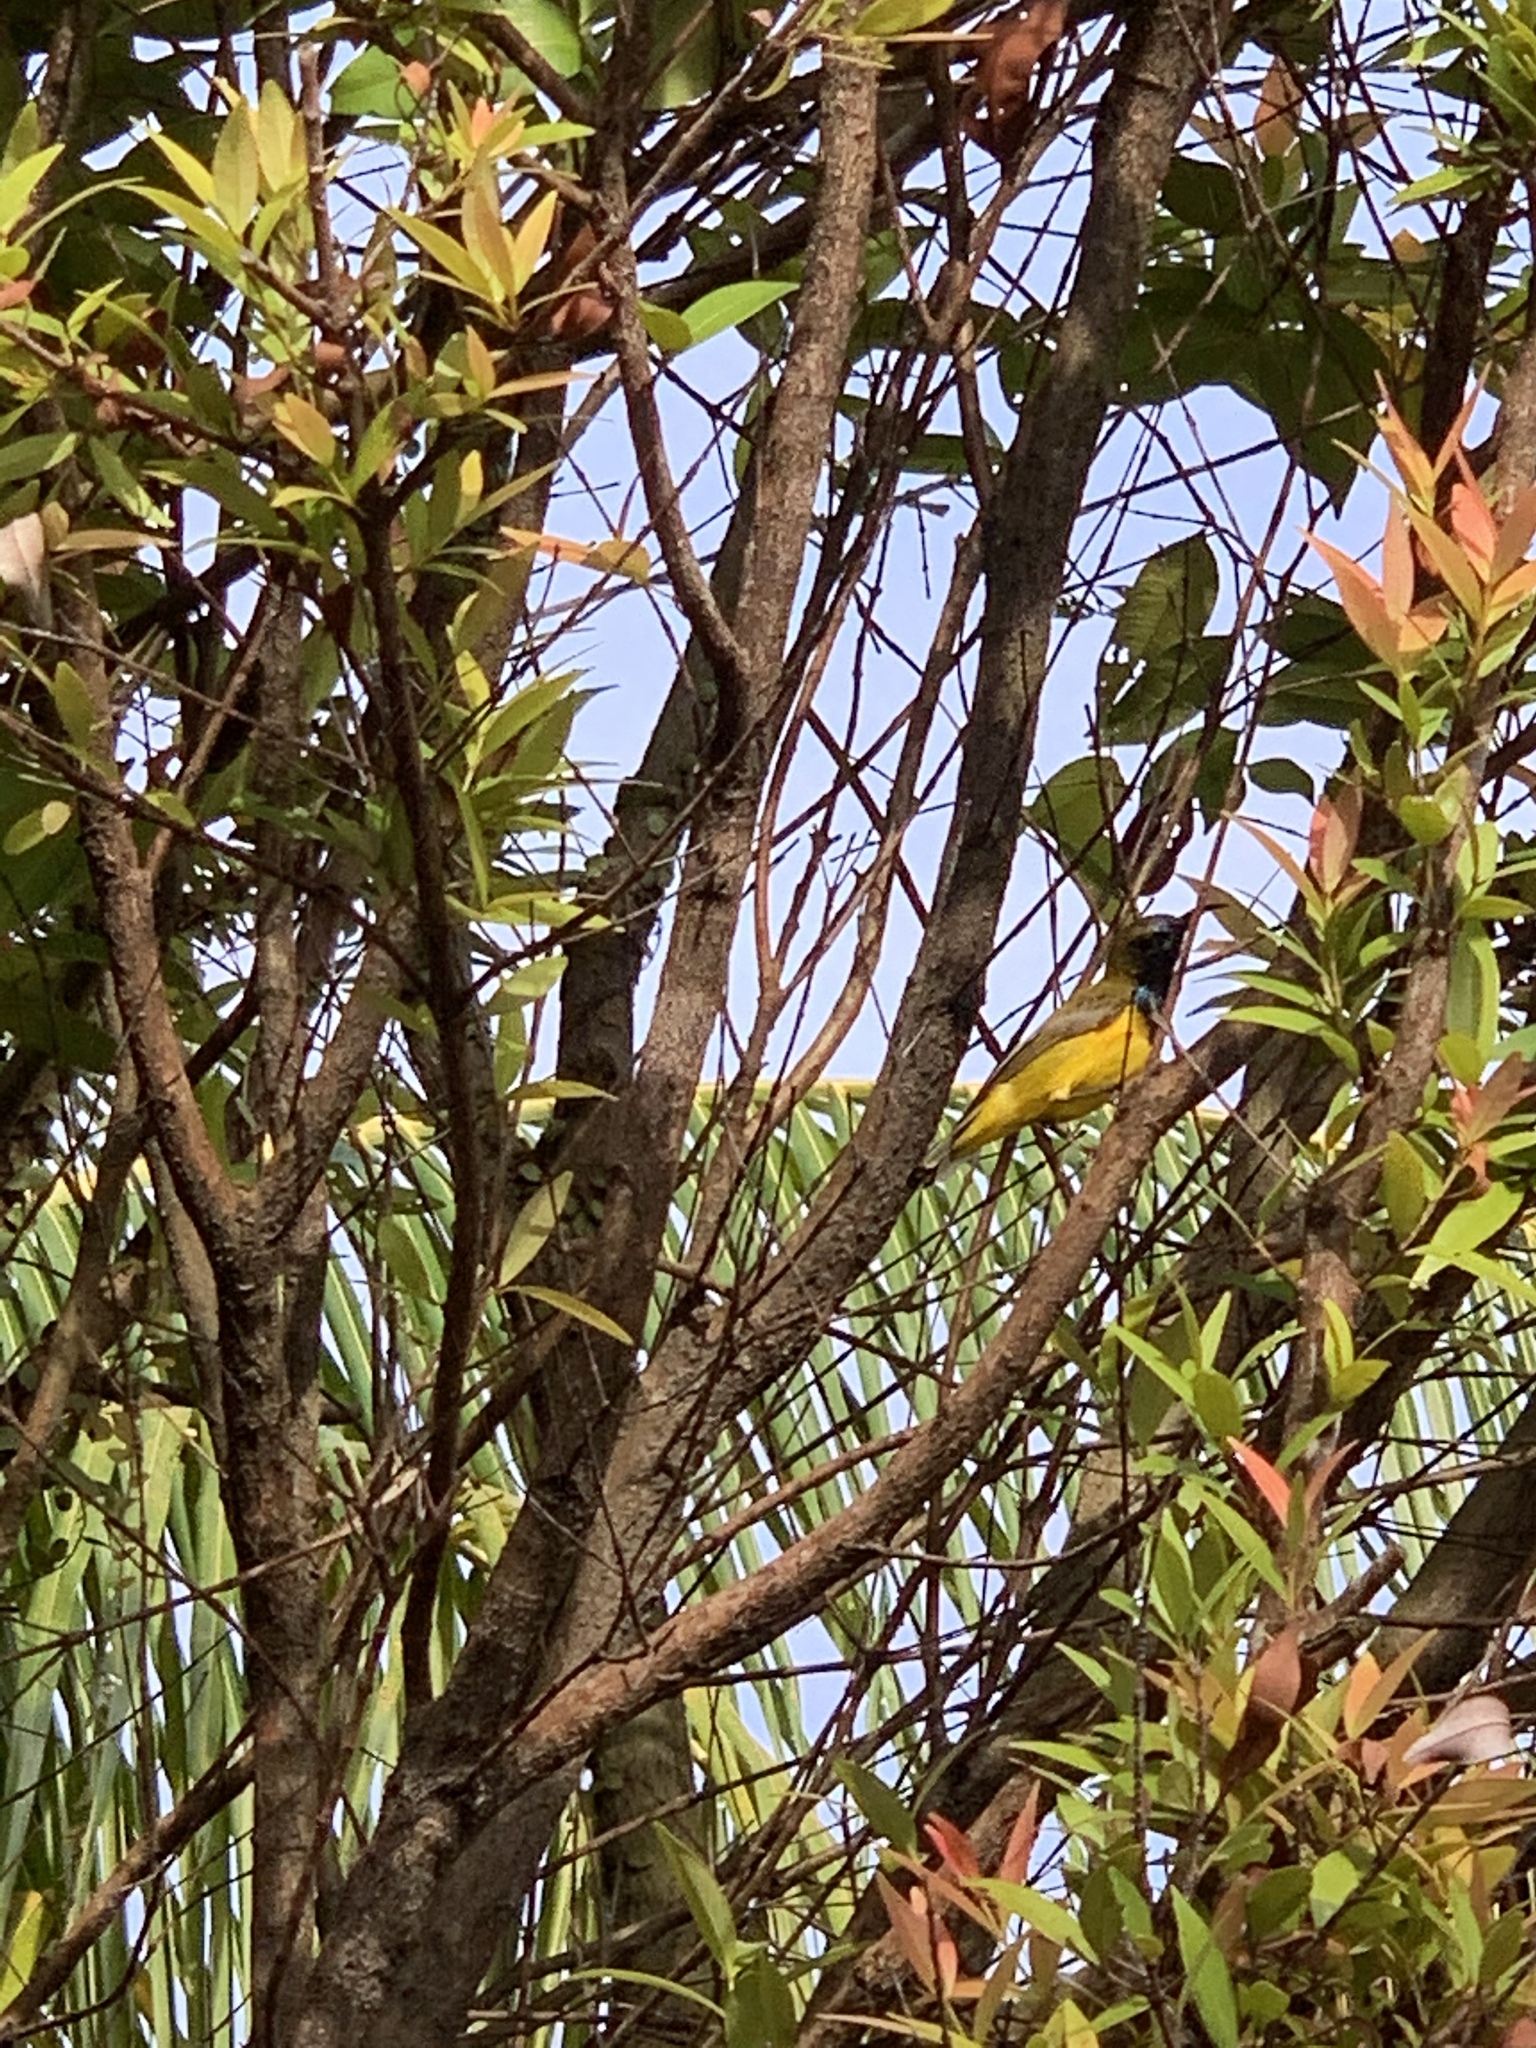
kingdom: Animalia
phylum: Chordata
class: Aves
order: Passeriformes
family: Nectariniidae
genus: Cinnyris
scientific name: Cinnyris
